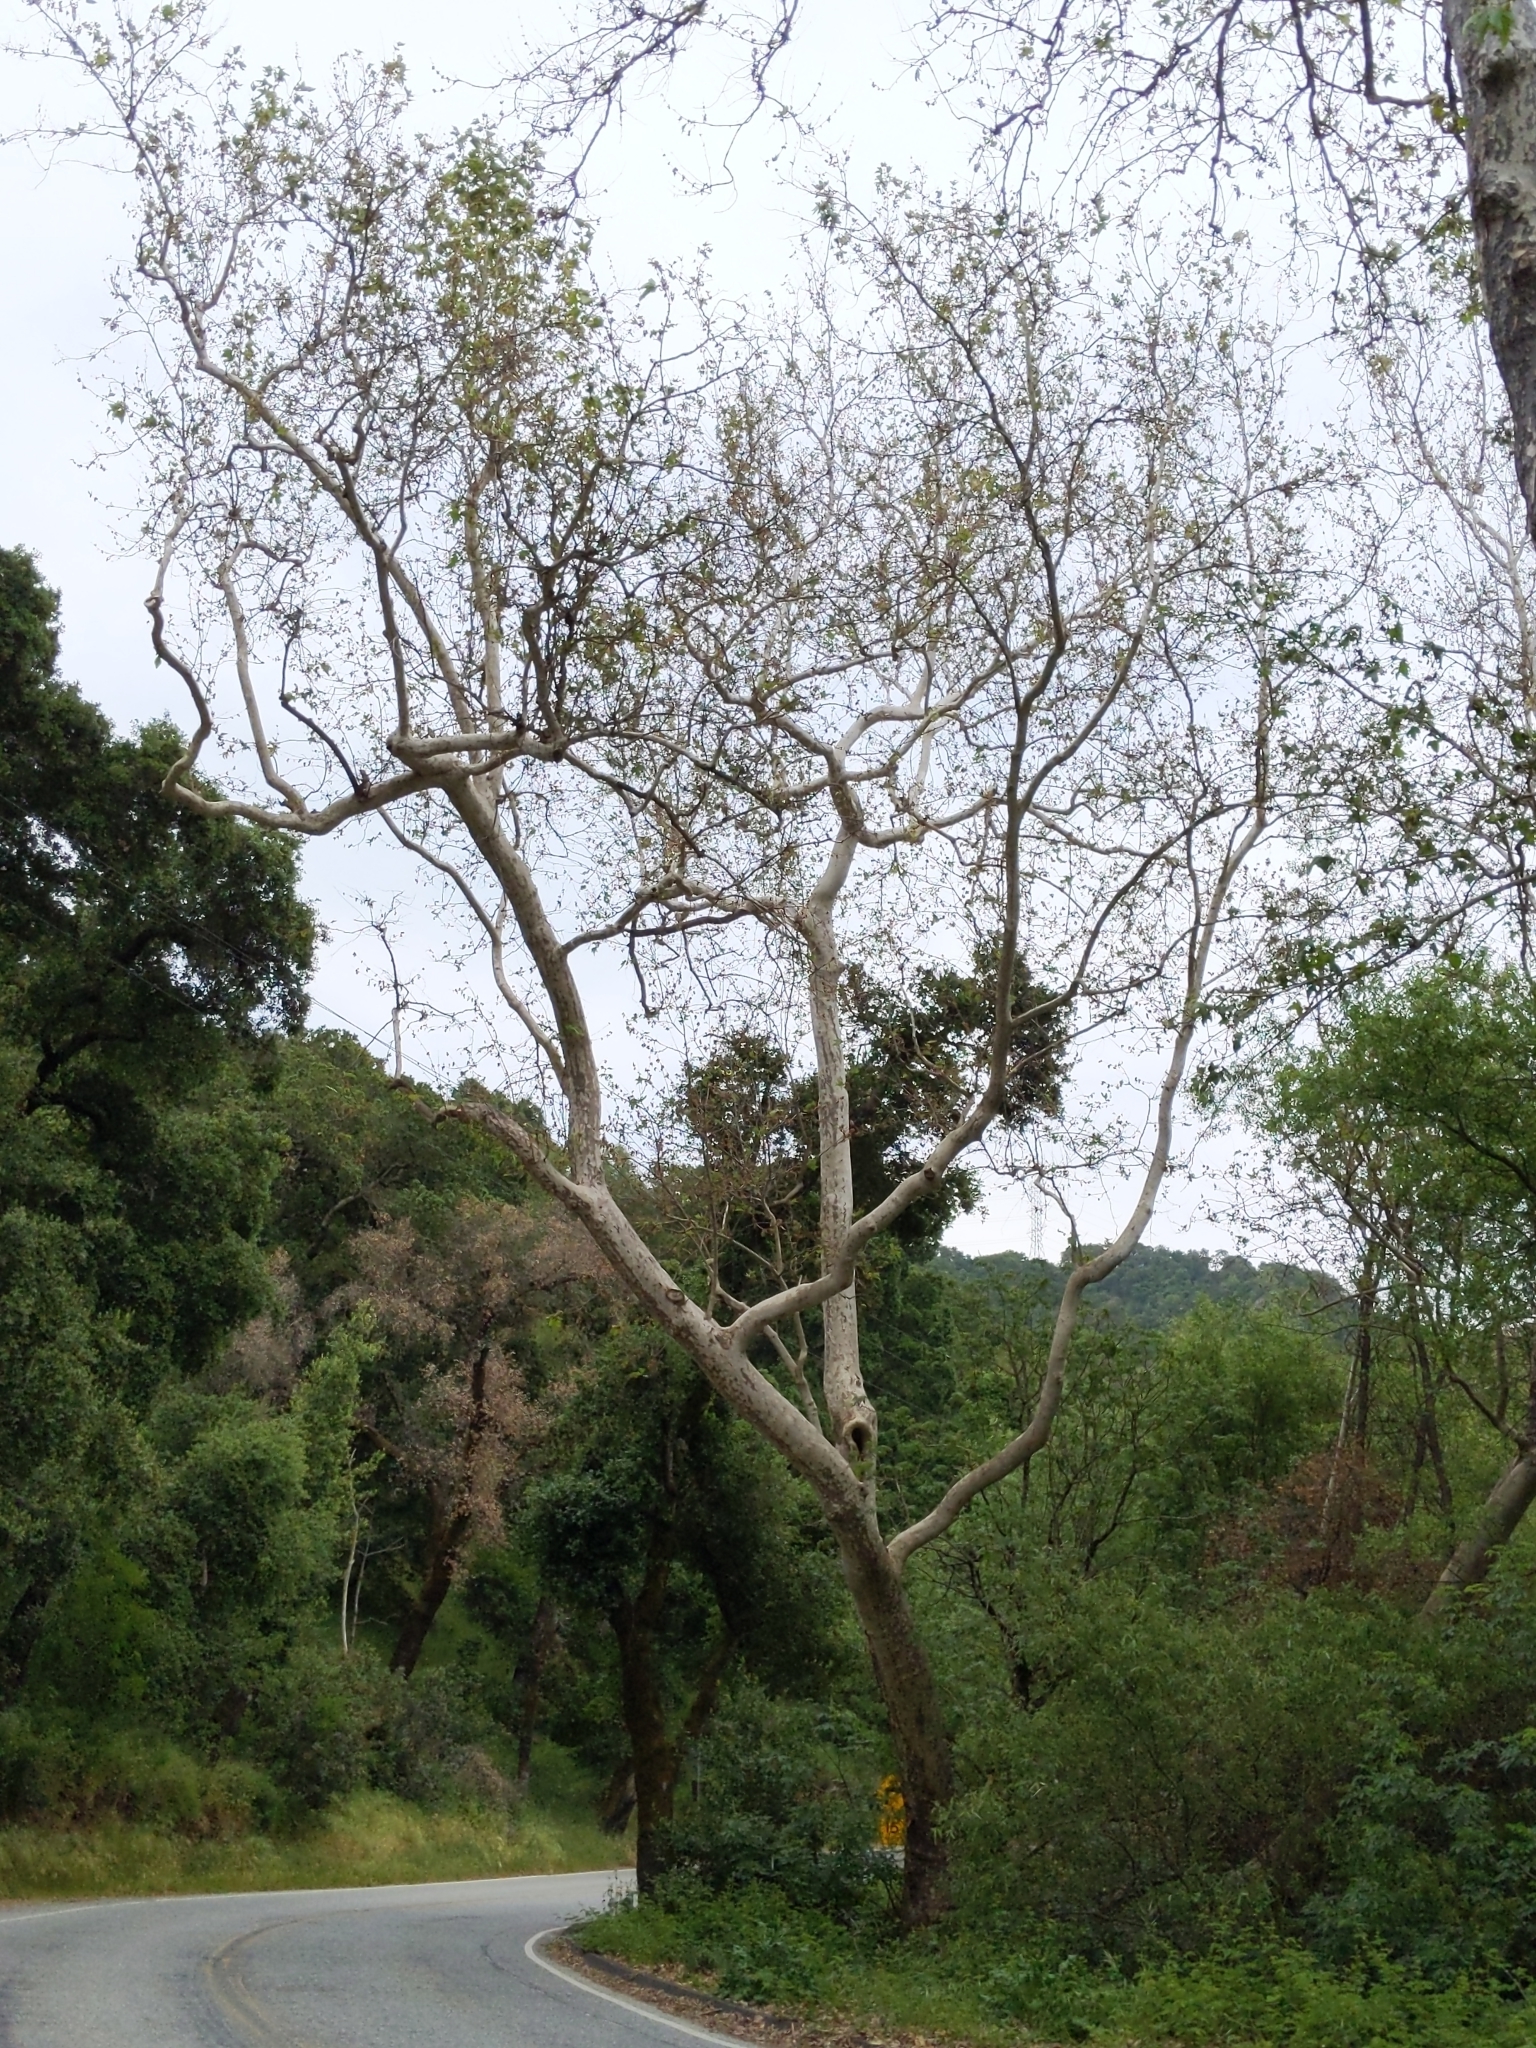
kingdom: Plantae
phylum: Tracheophyta
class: Magnoliopsida
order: Proteales
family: Platanaceae
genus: Platanus
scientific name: Platanus racemosa
